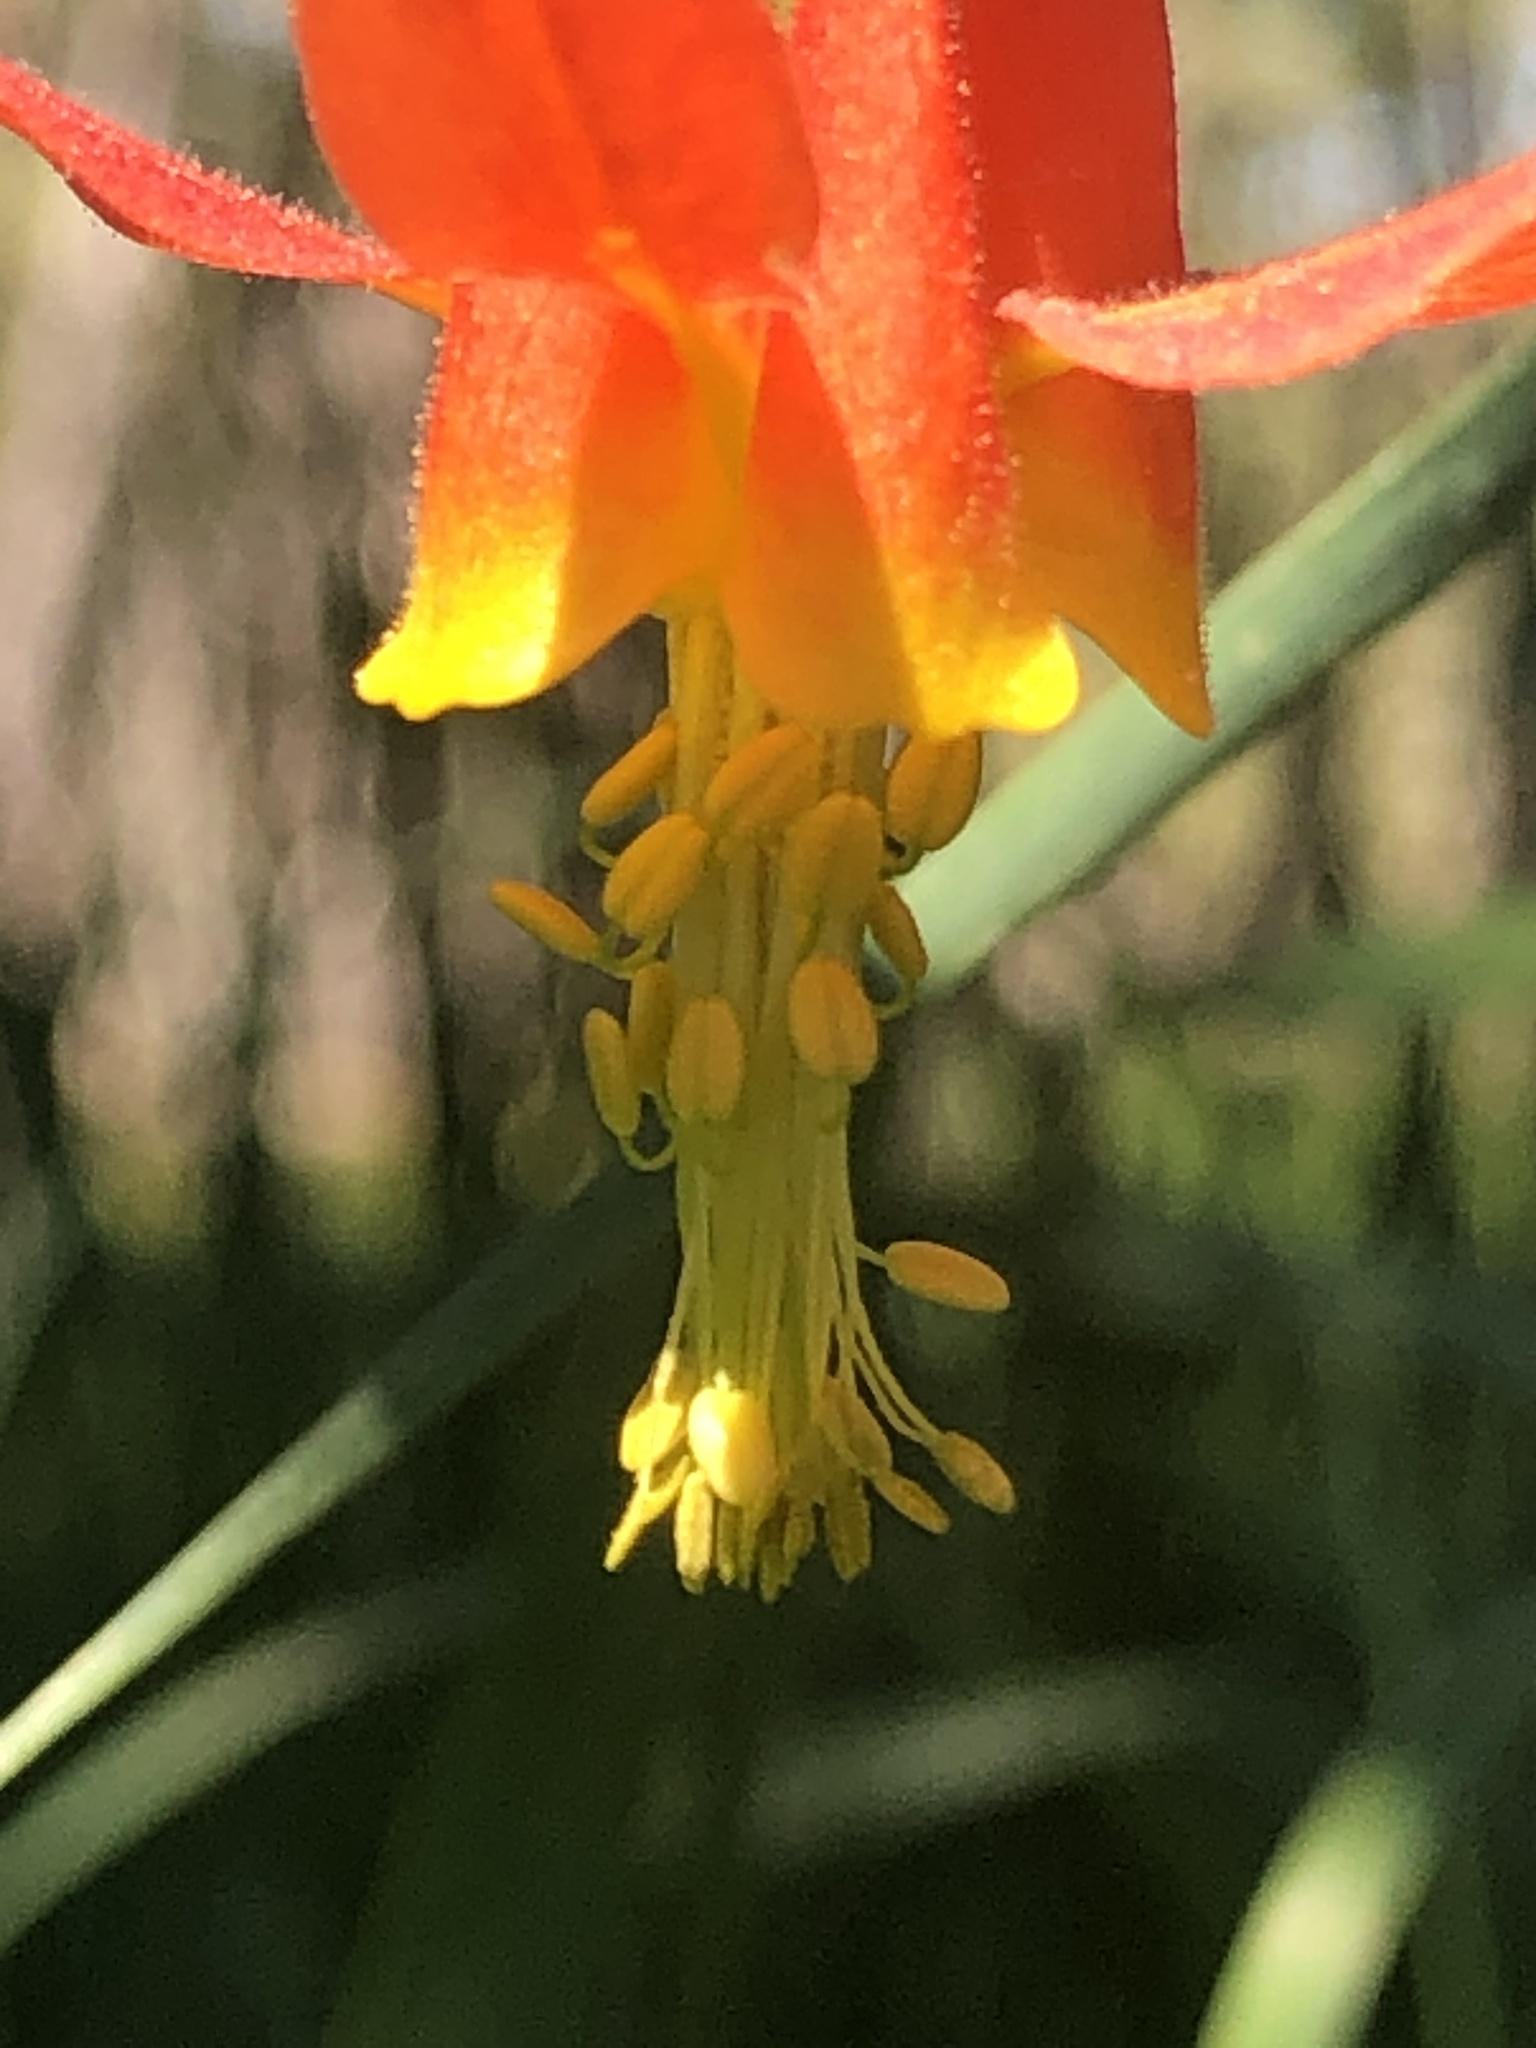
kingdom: Plantae
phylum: Tracheophyta
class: Magnoliopsida
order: Ranunculales
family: Ranunculaceae
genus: Aquilegia
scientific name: Aquilegia formosa
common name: Sitka columbine
